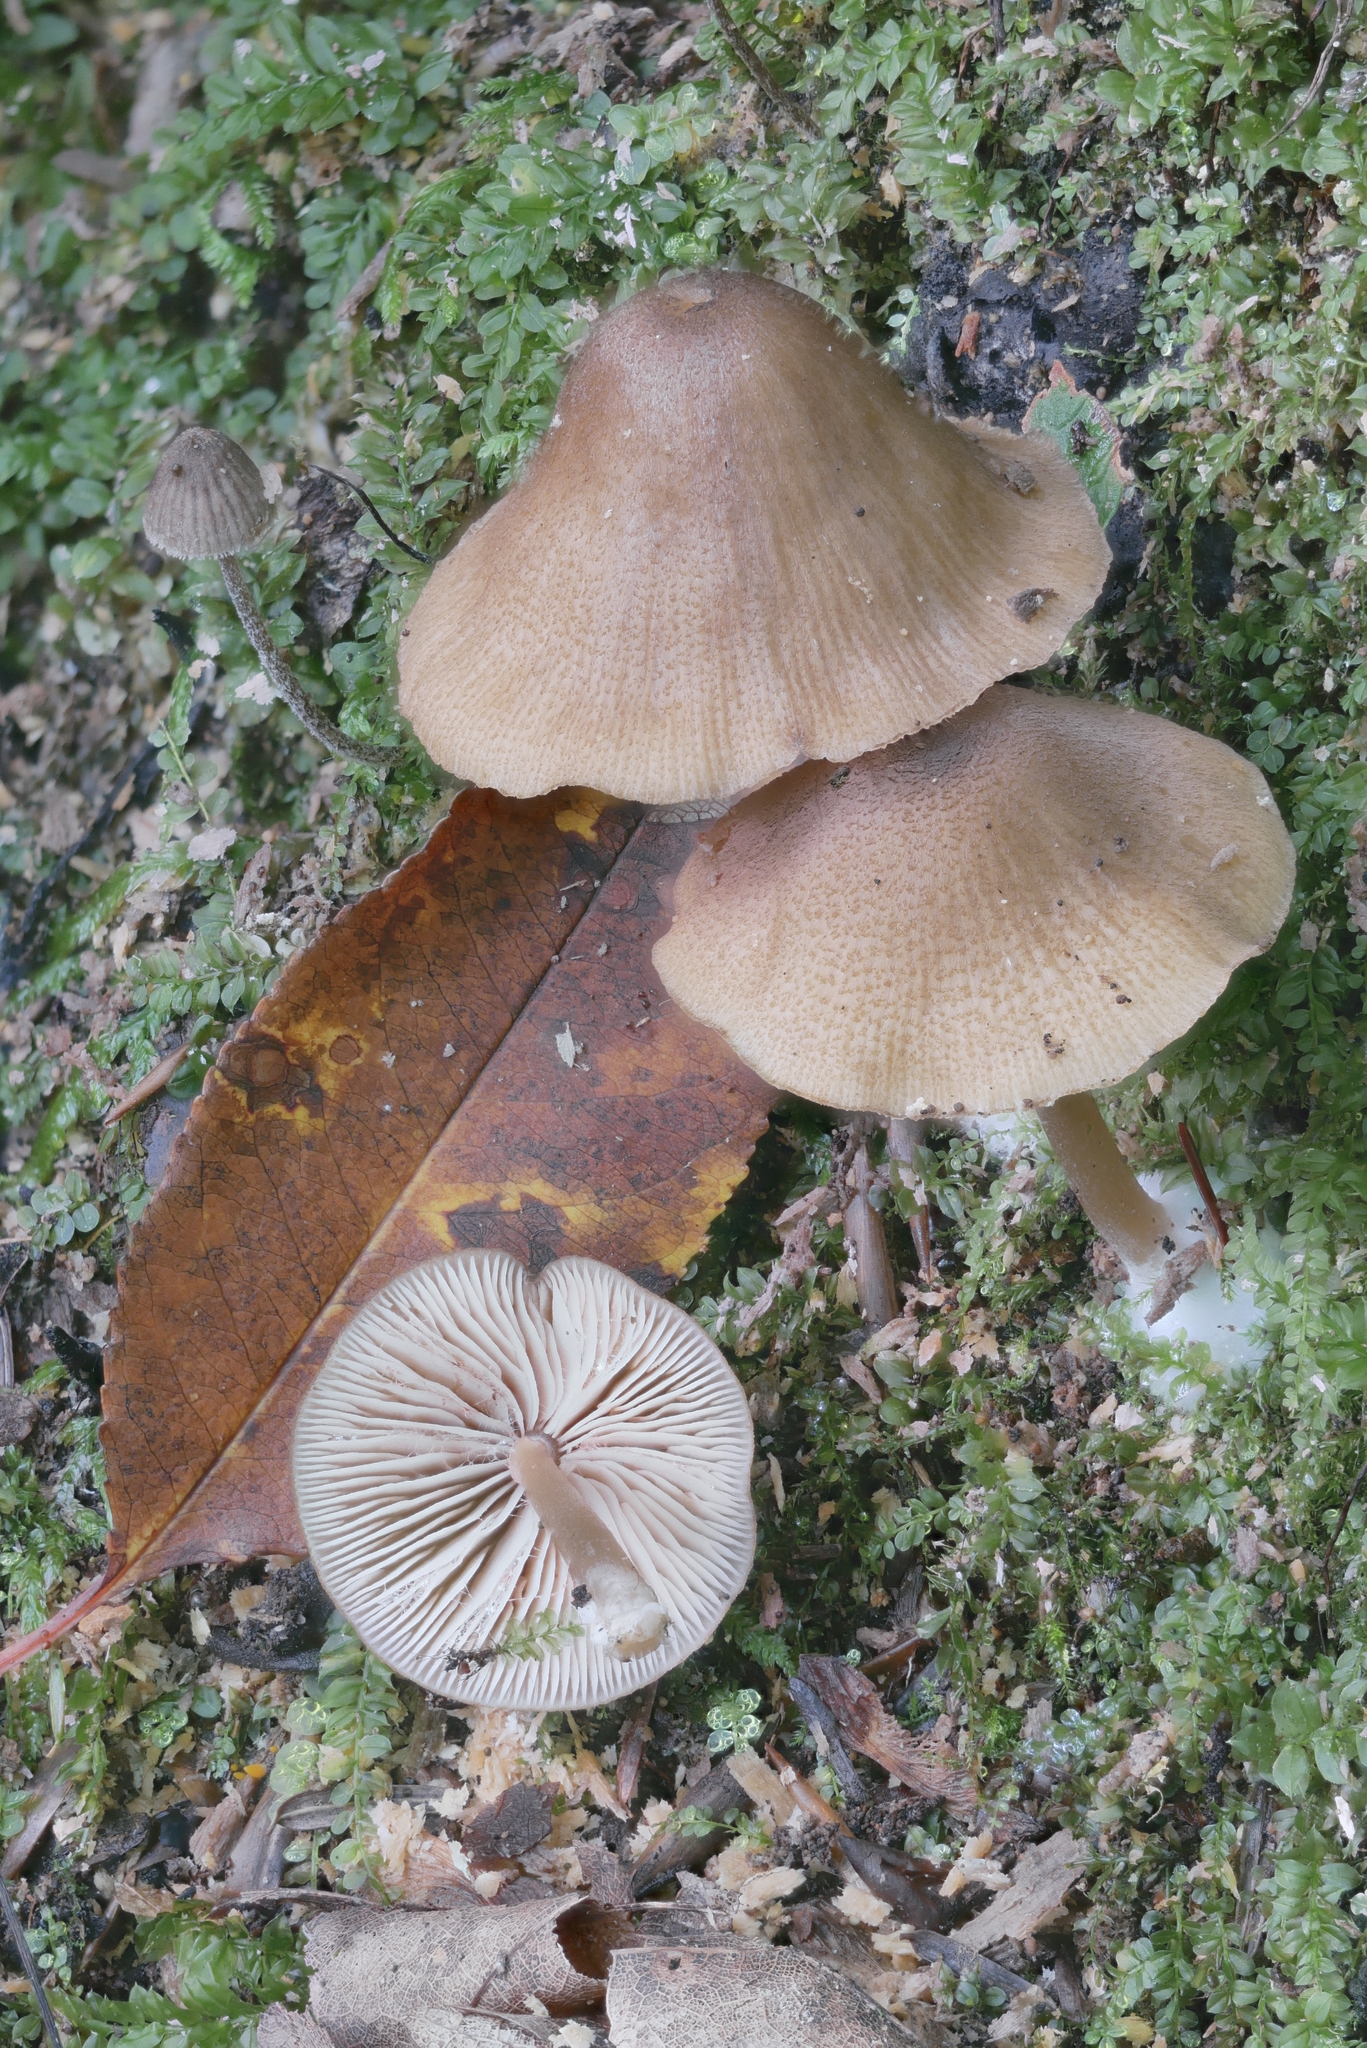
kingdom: Fungi
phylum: Basidiomycota
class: Agaricomycetes
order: Agaricales
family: Entolomataceae
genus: Entoloma
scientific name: Entoloma formosum
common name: Pretty pinkgill
